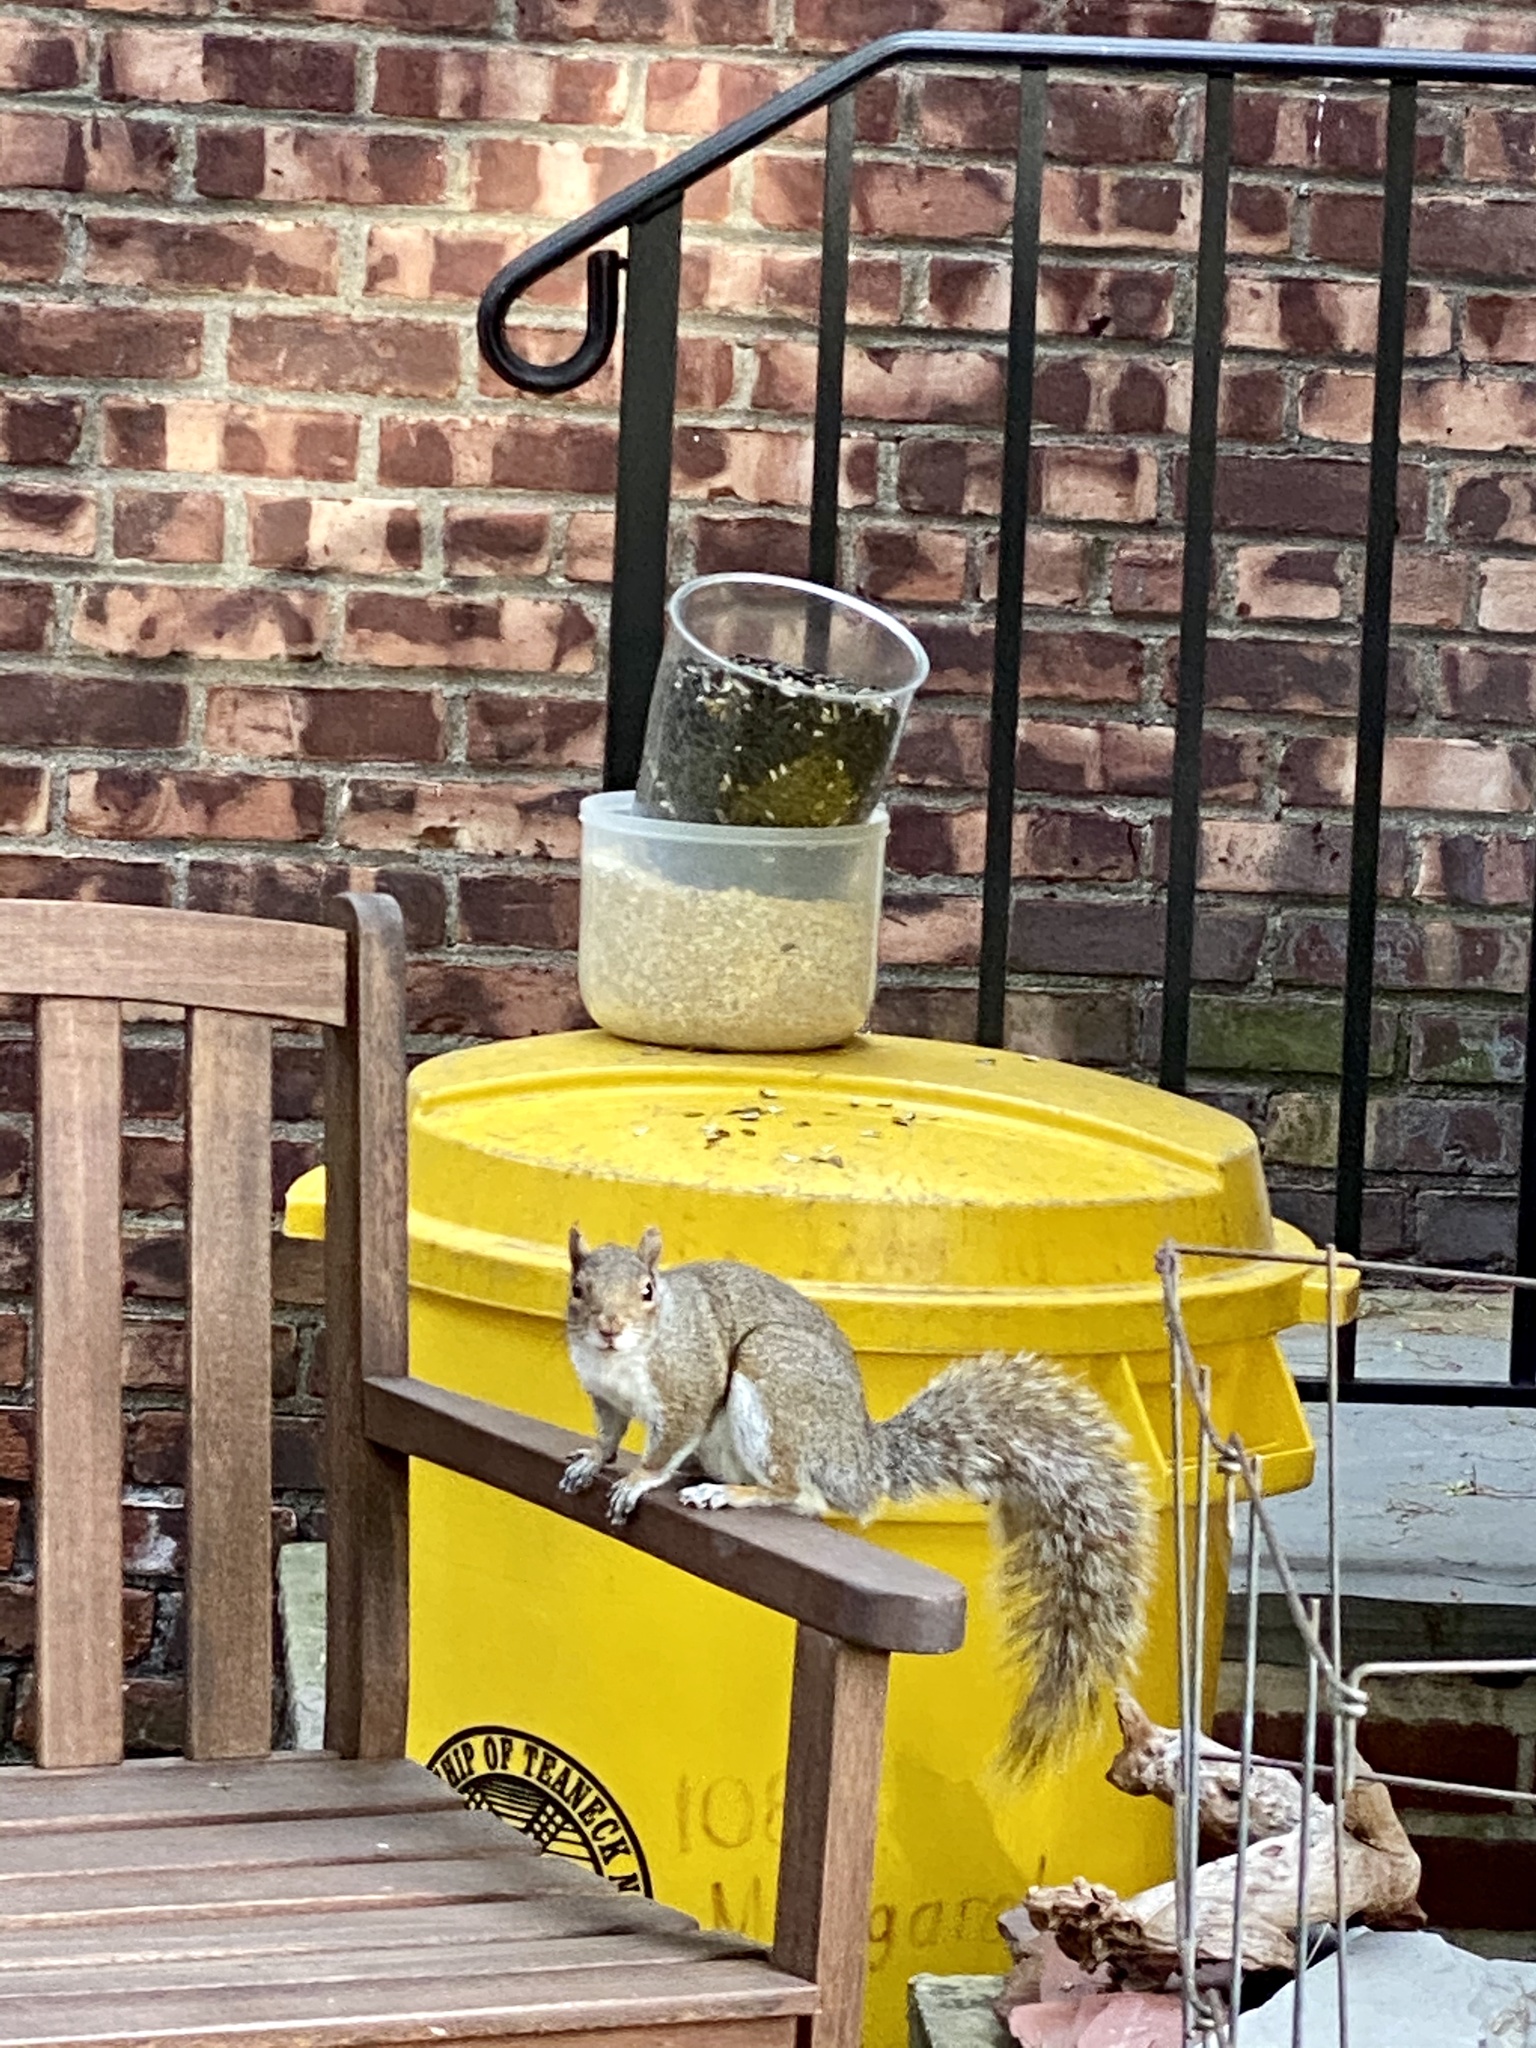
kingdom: Animalia
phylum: Chordata
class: Mammalia
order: Rodentia
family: Sciuridae
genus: Sciurus
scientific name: Sciurus carolinensis
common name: Eastern gray squirrel
